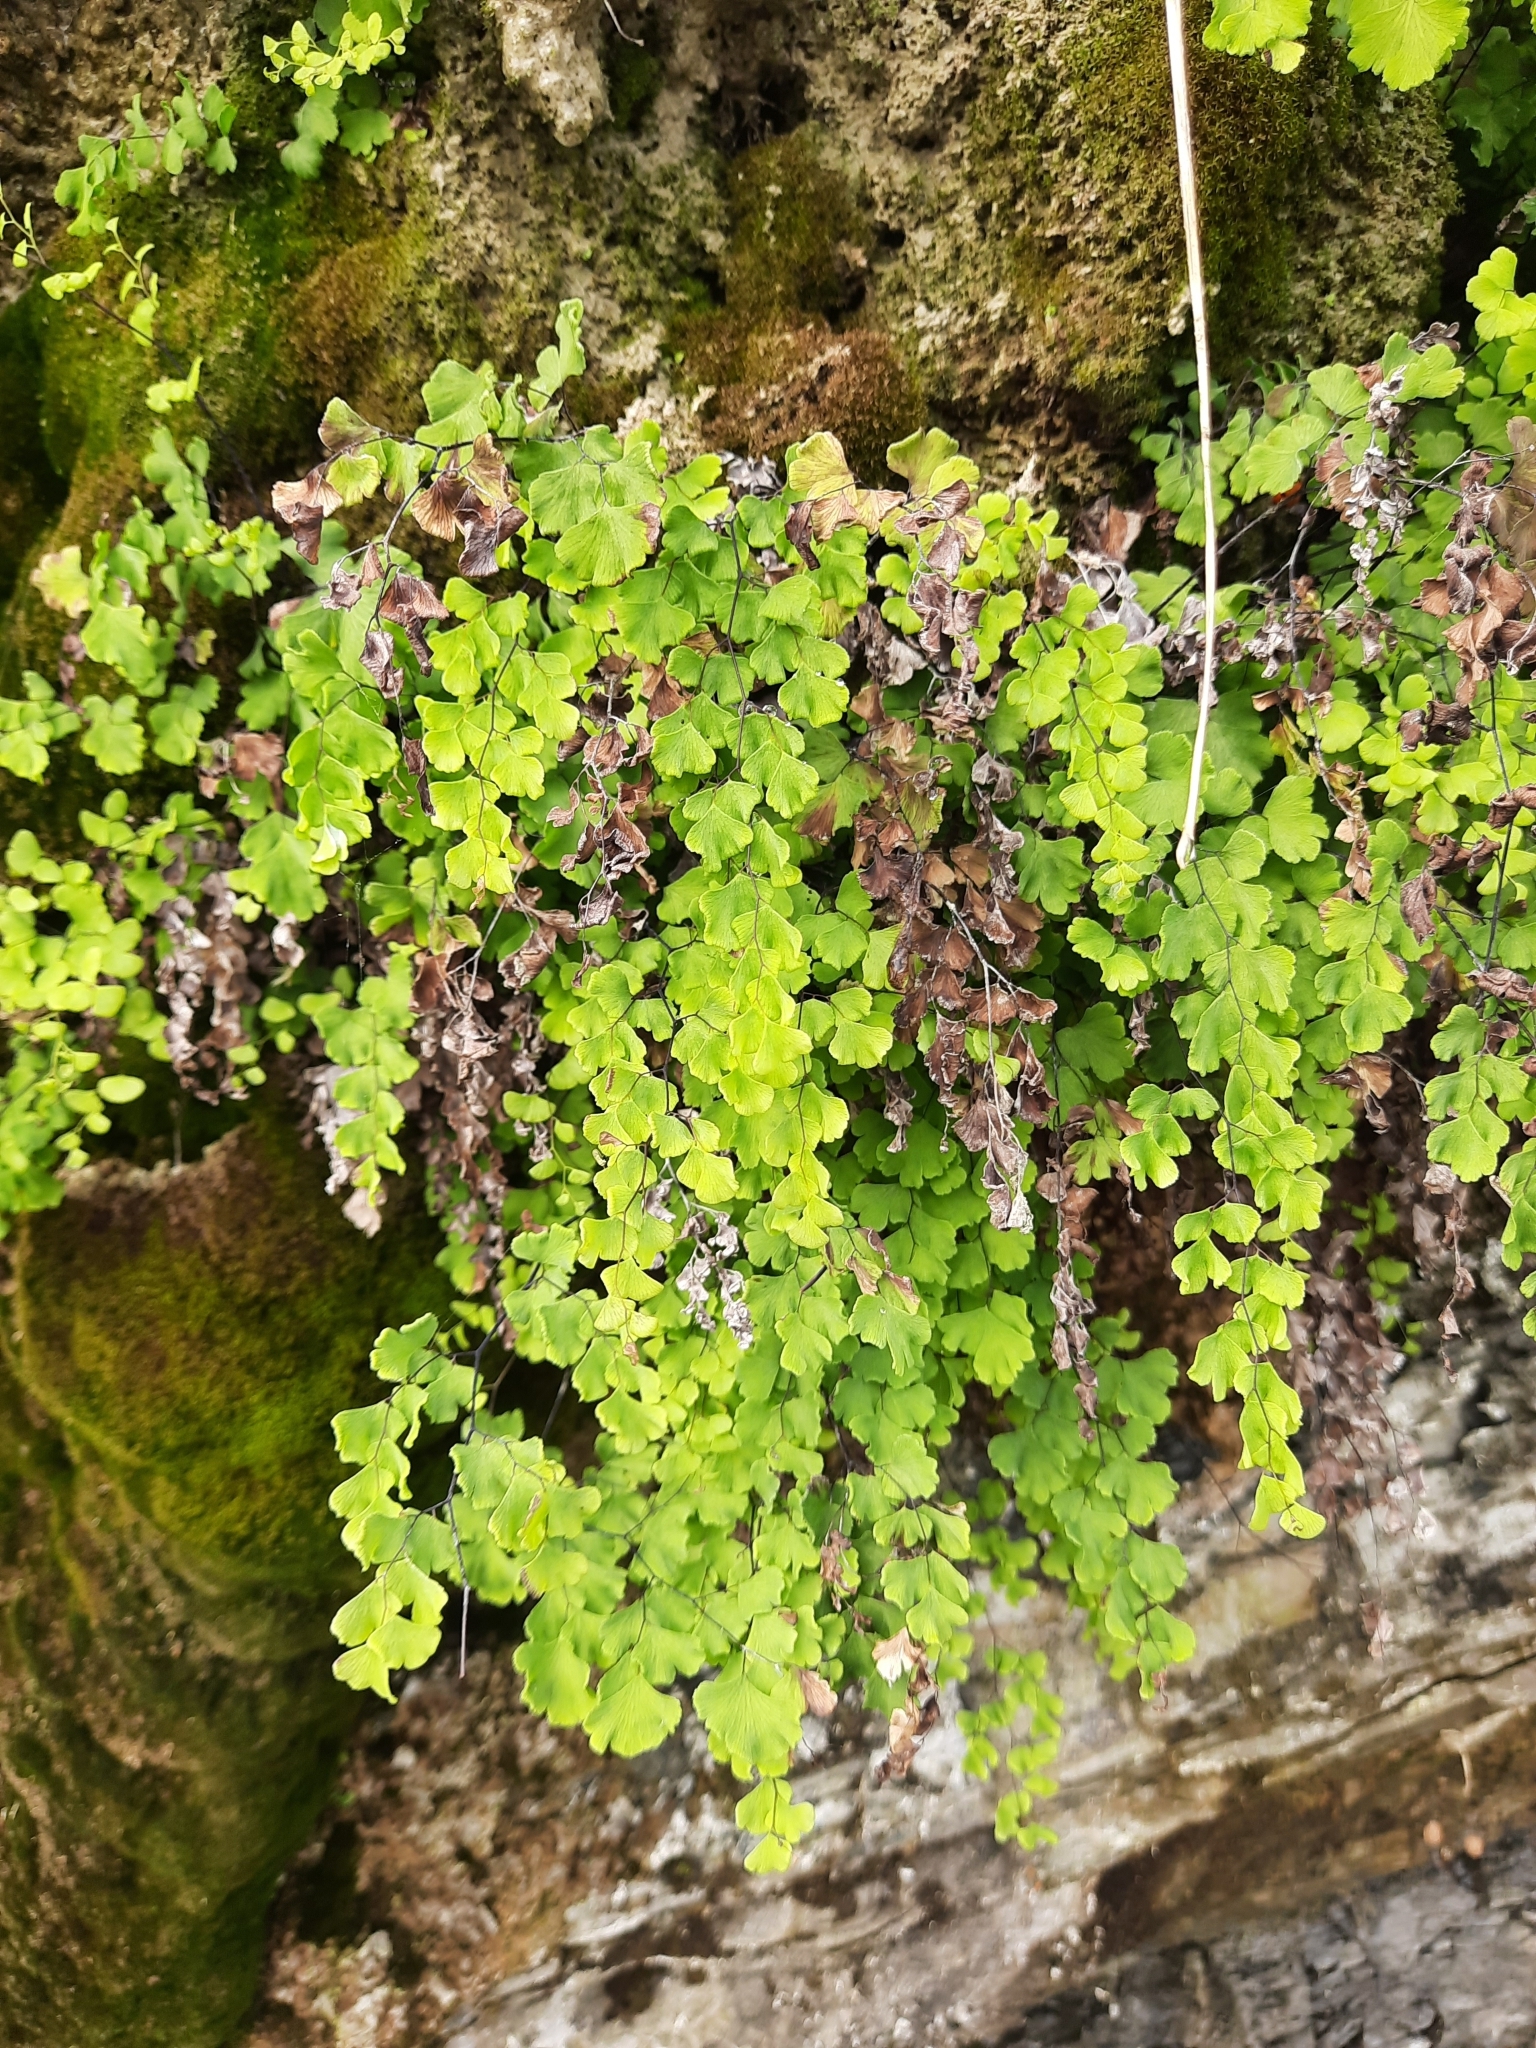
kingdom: Plantae
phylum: Tracheophyta
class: Polypodiopsida
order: Polypodiales
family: Pteridaceae
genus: Adiantum
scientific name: Adiantum capillus-veneris
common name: Maidenhair fern
